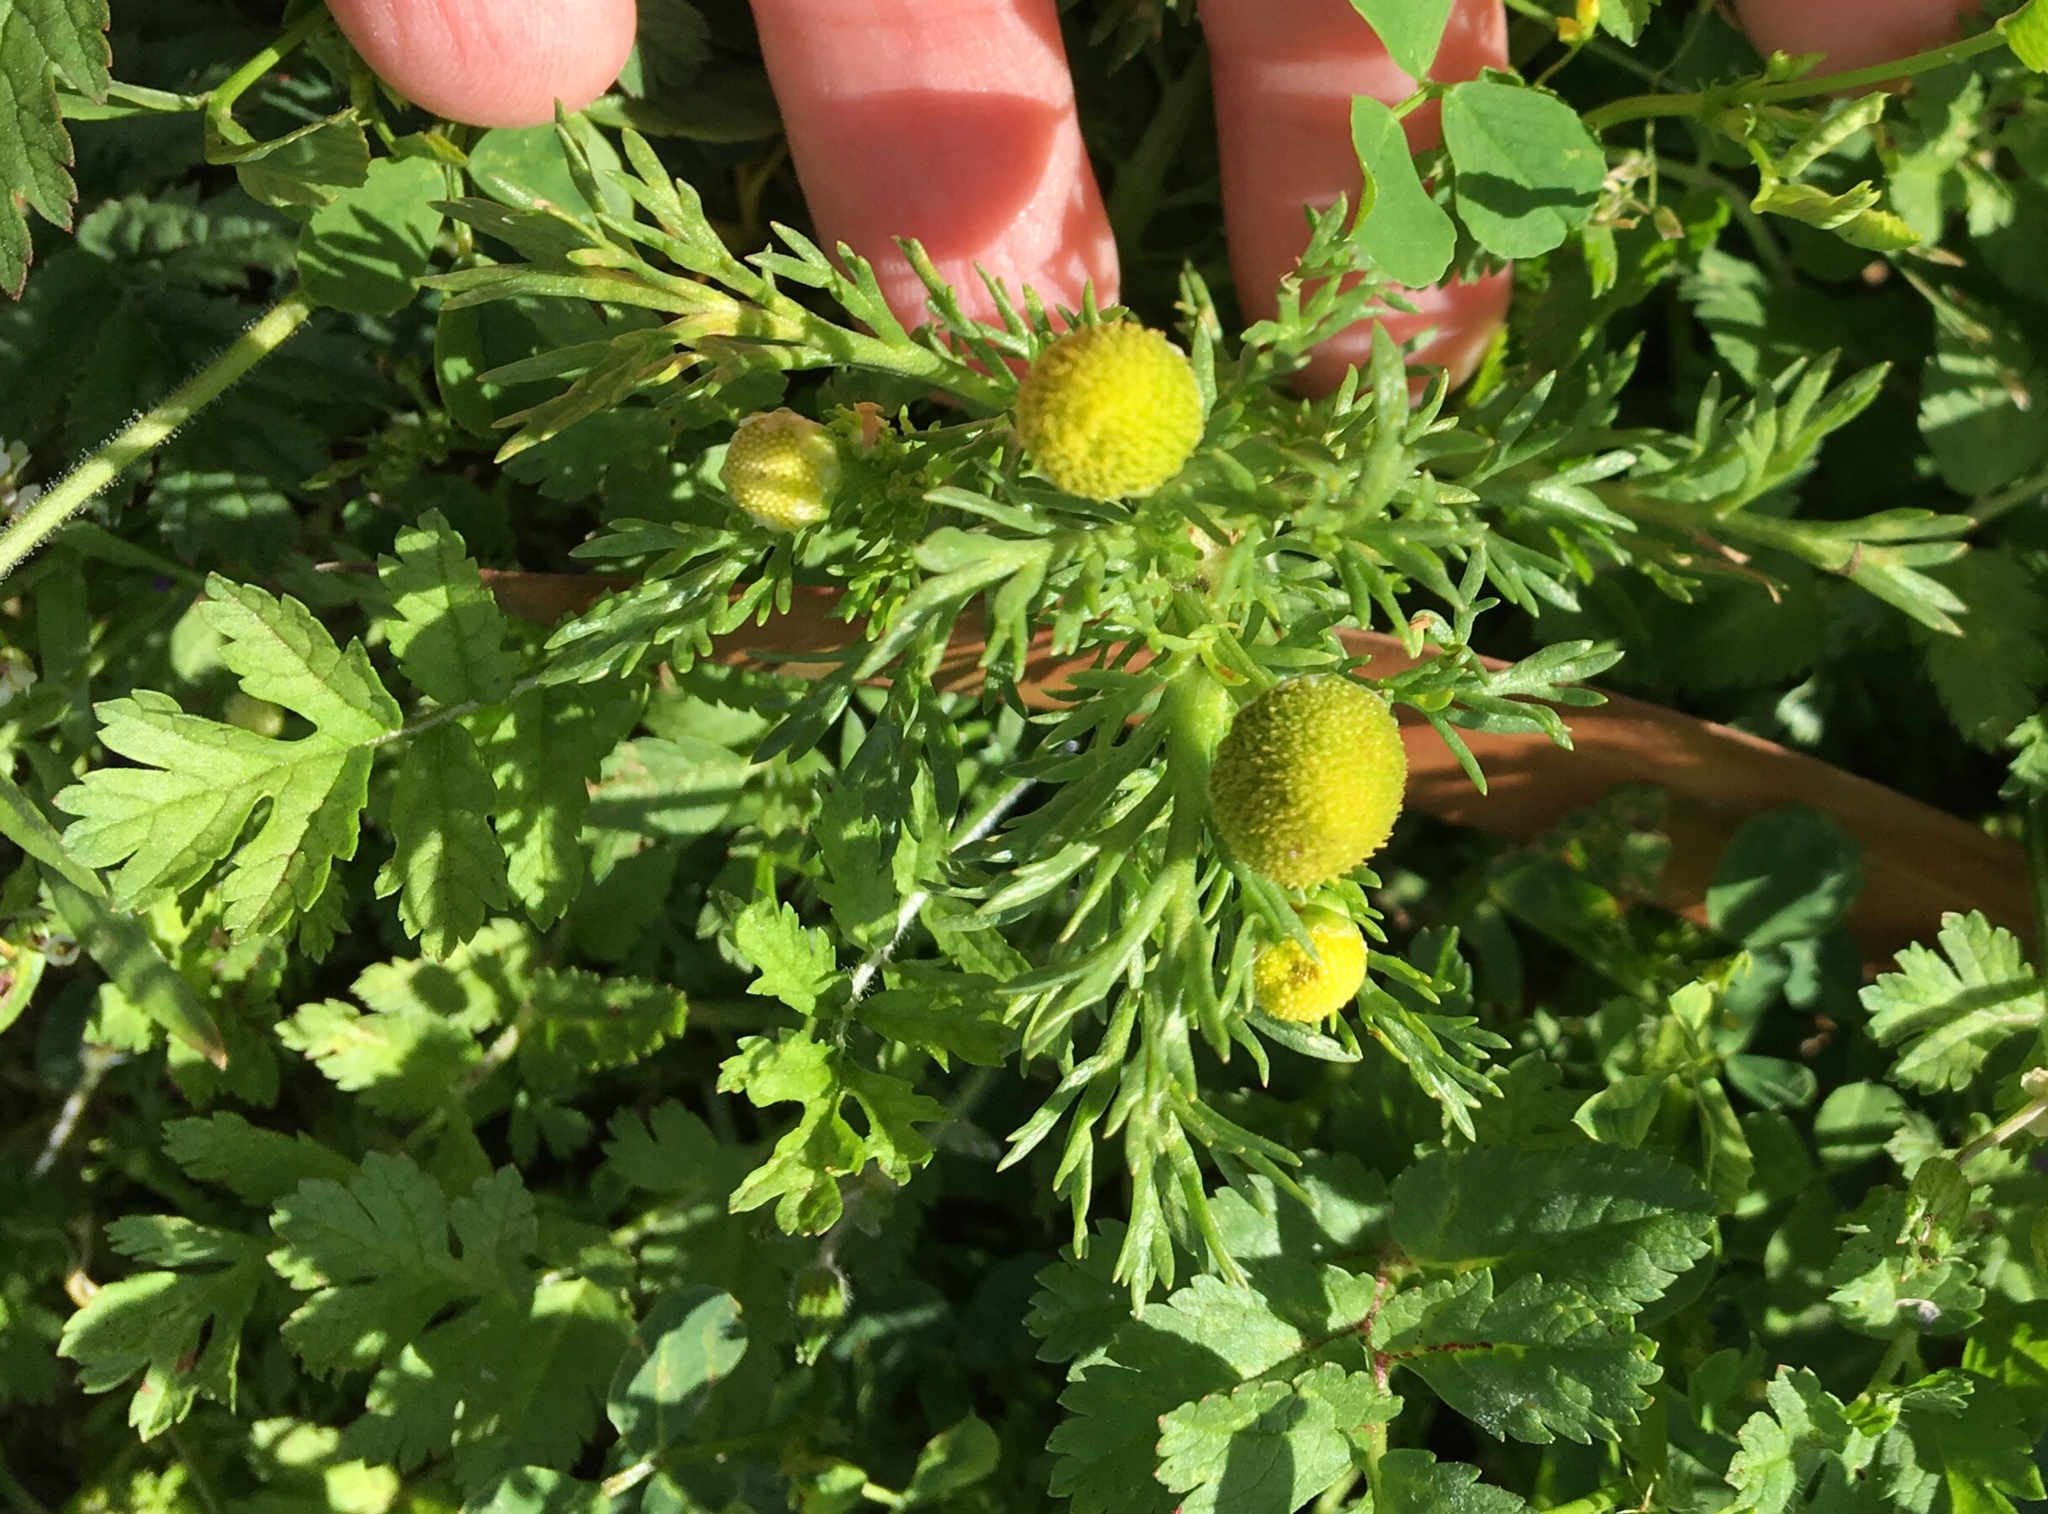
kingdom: Plantae
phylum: Tracheophyta
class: Magnoliopsida
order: Asterales
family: Asteraceae
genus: Matricaria
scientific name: Matricaria discoidea
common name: Disc mayweed
